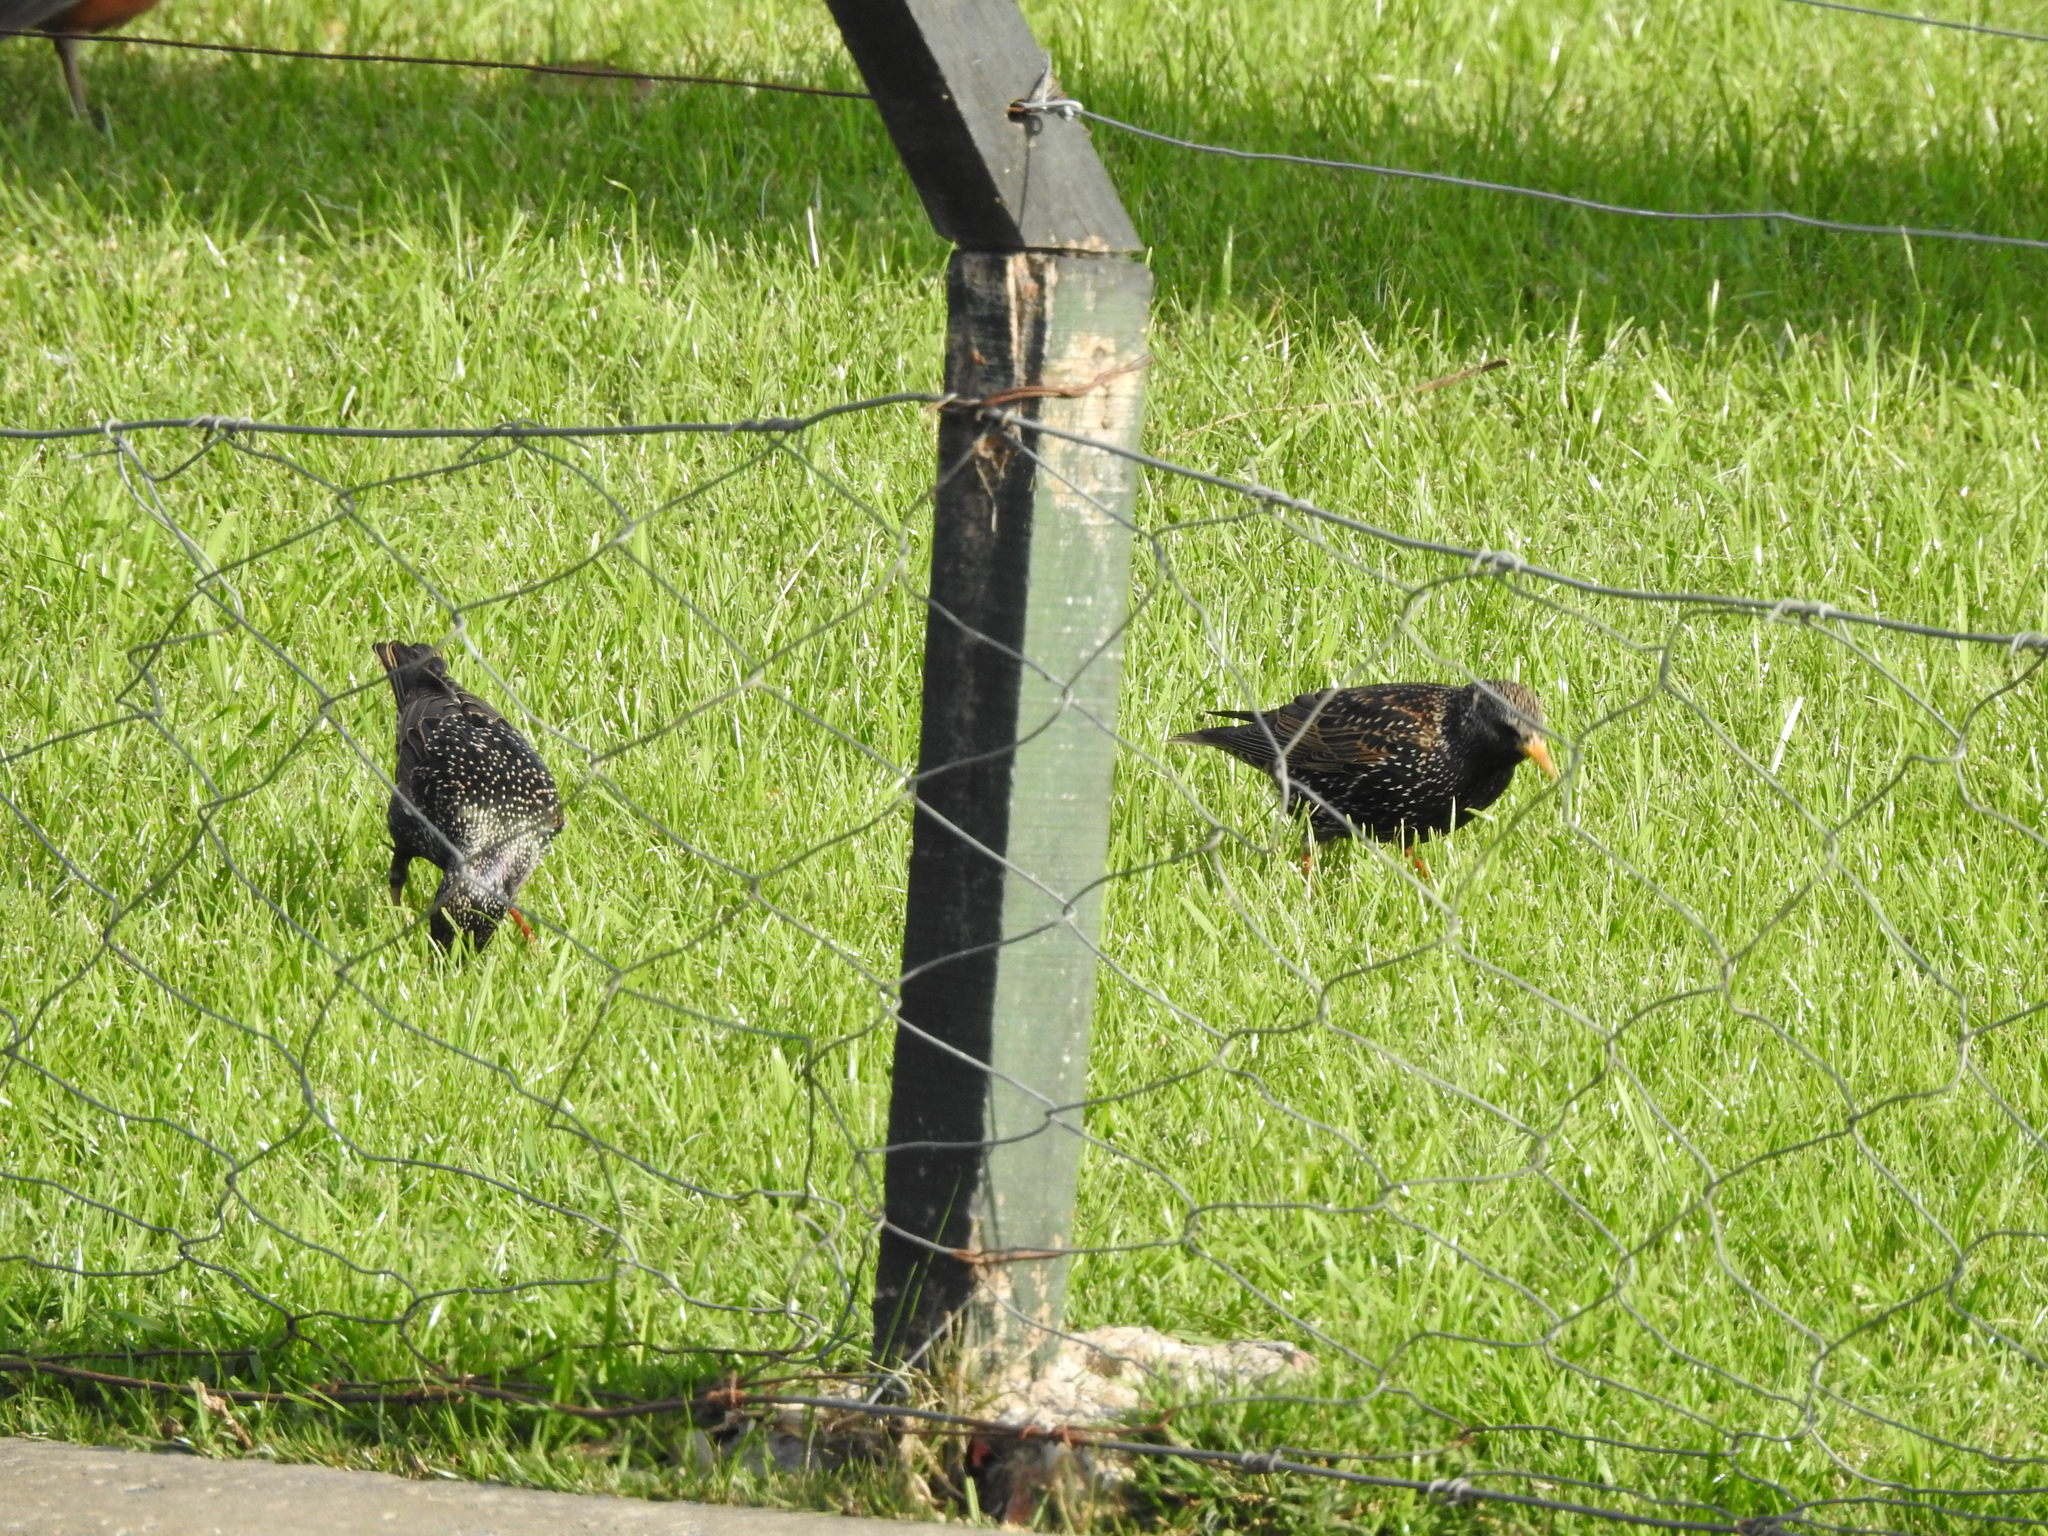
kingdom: Animalia
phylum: Chordata
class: Aves
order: Passeriformes
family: Sturnidae
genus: Sturnus
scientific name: Sturnus vulgaris
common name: Common starling
